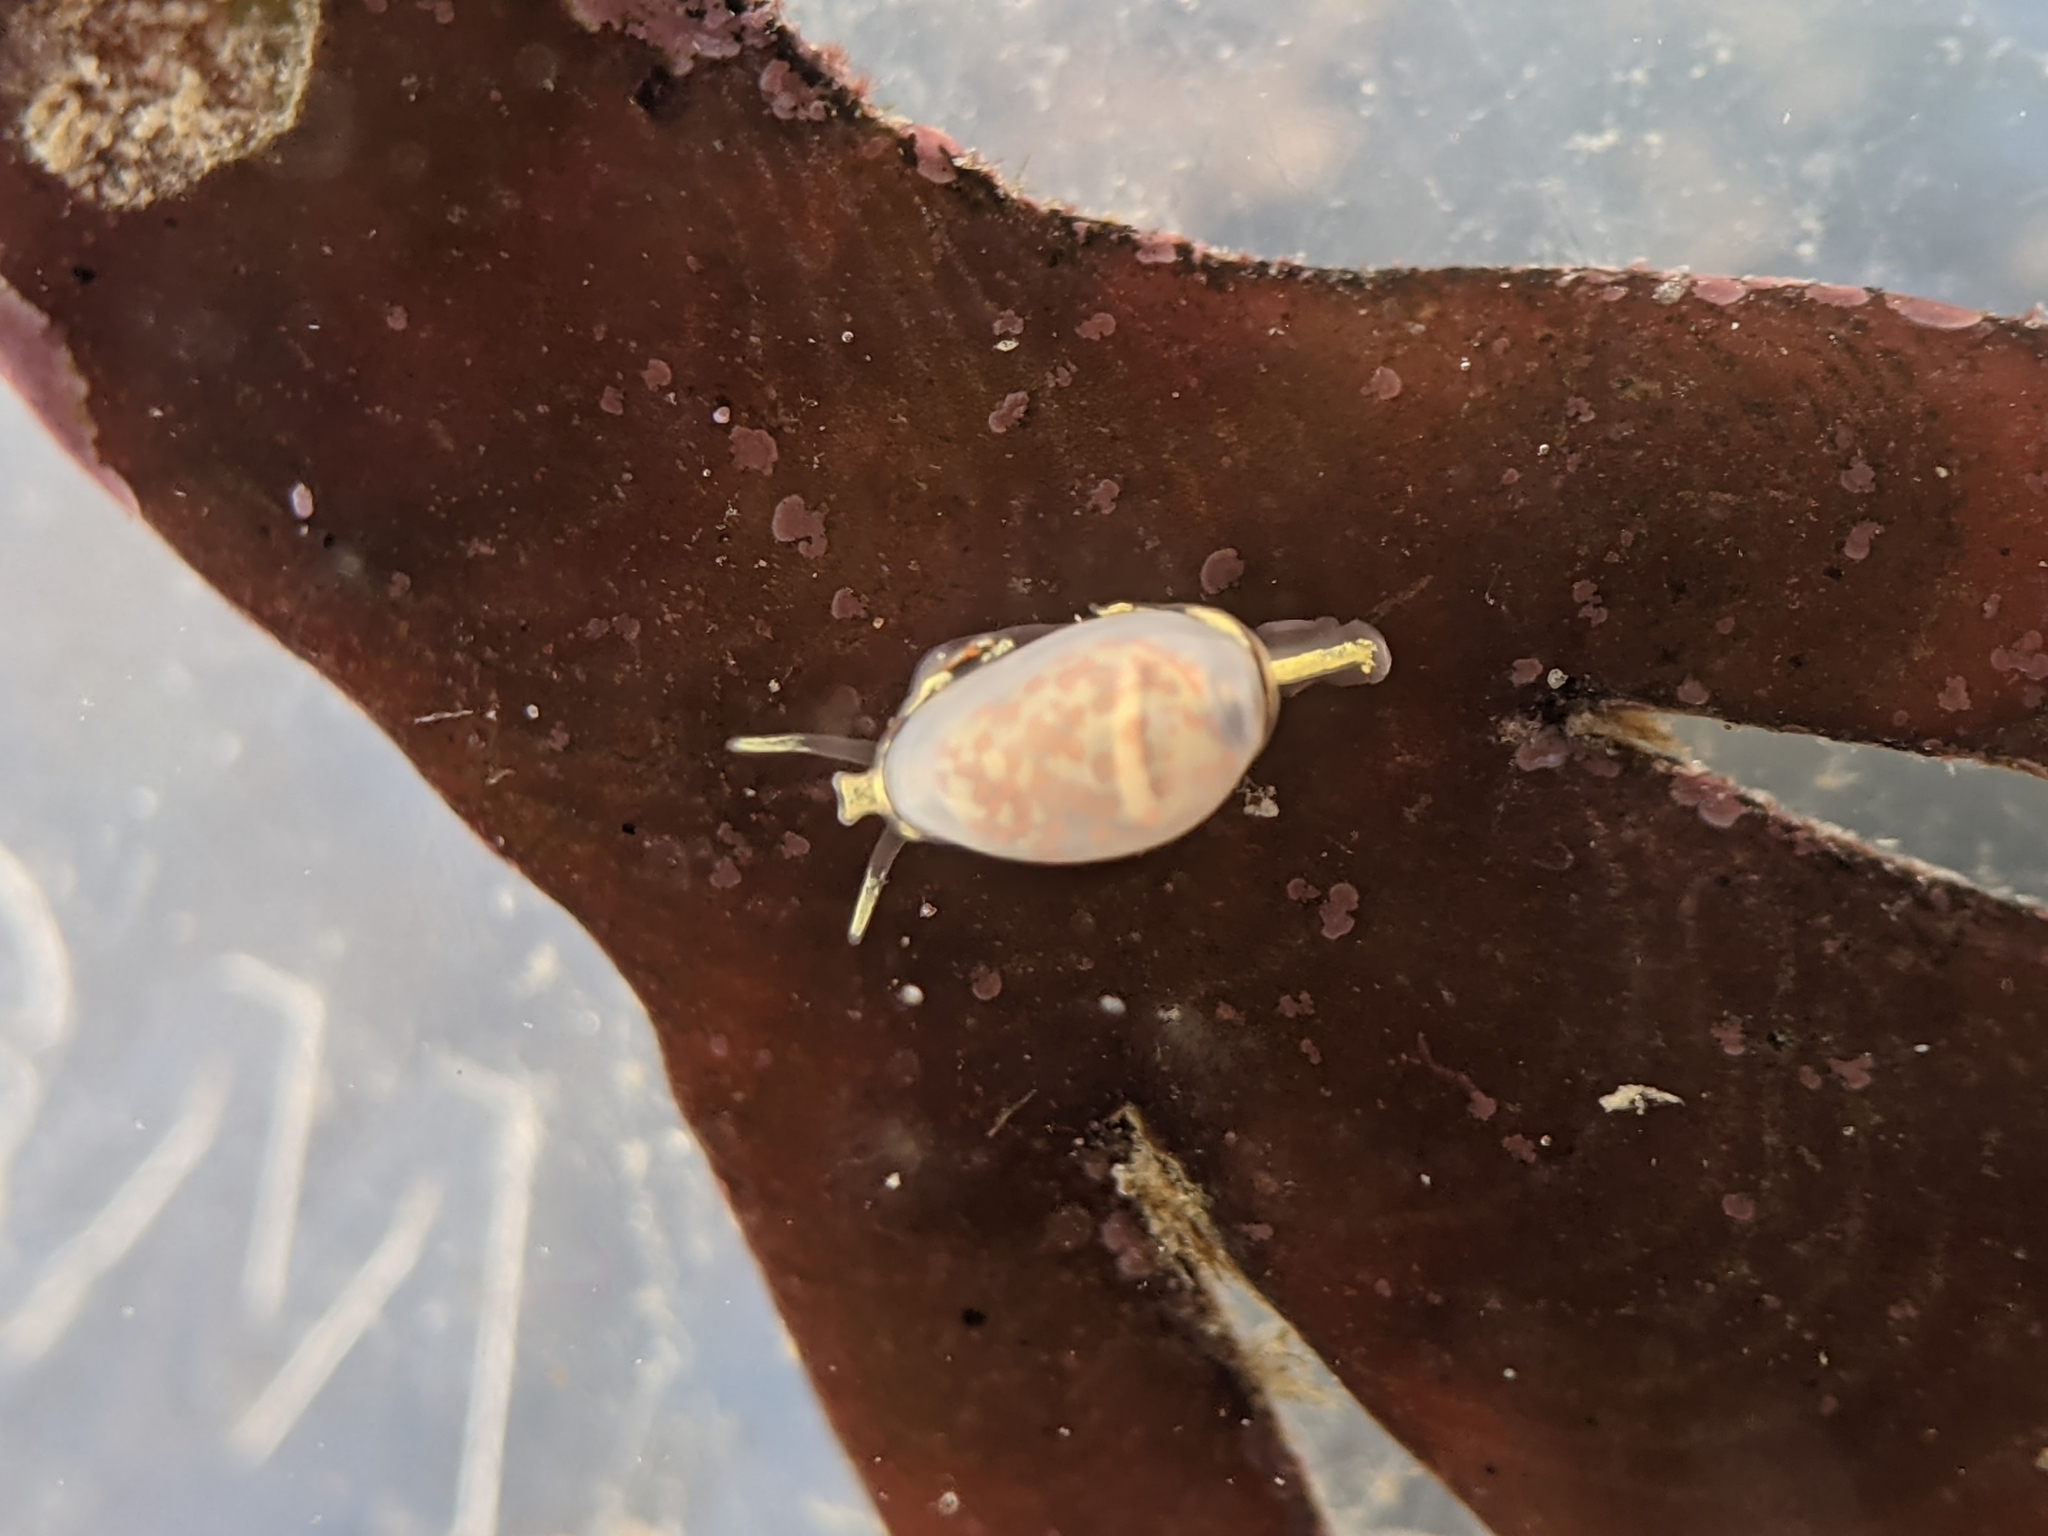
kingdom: Animalia
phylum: Mollusca
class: Gastropoda
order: Neogastropoda
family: Granulinidae
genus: Granulina
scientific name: Granulina margaritula
